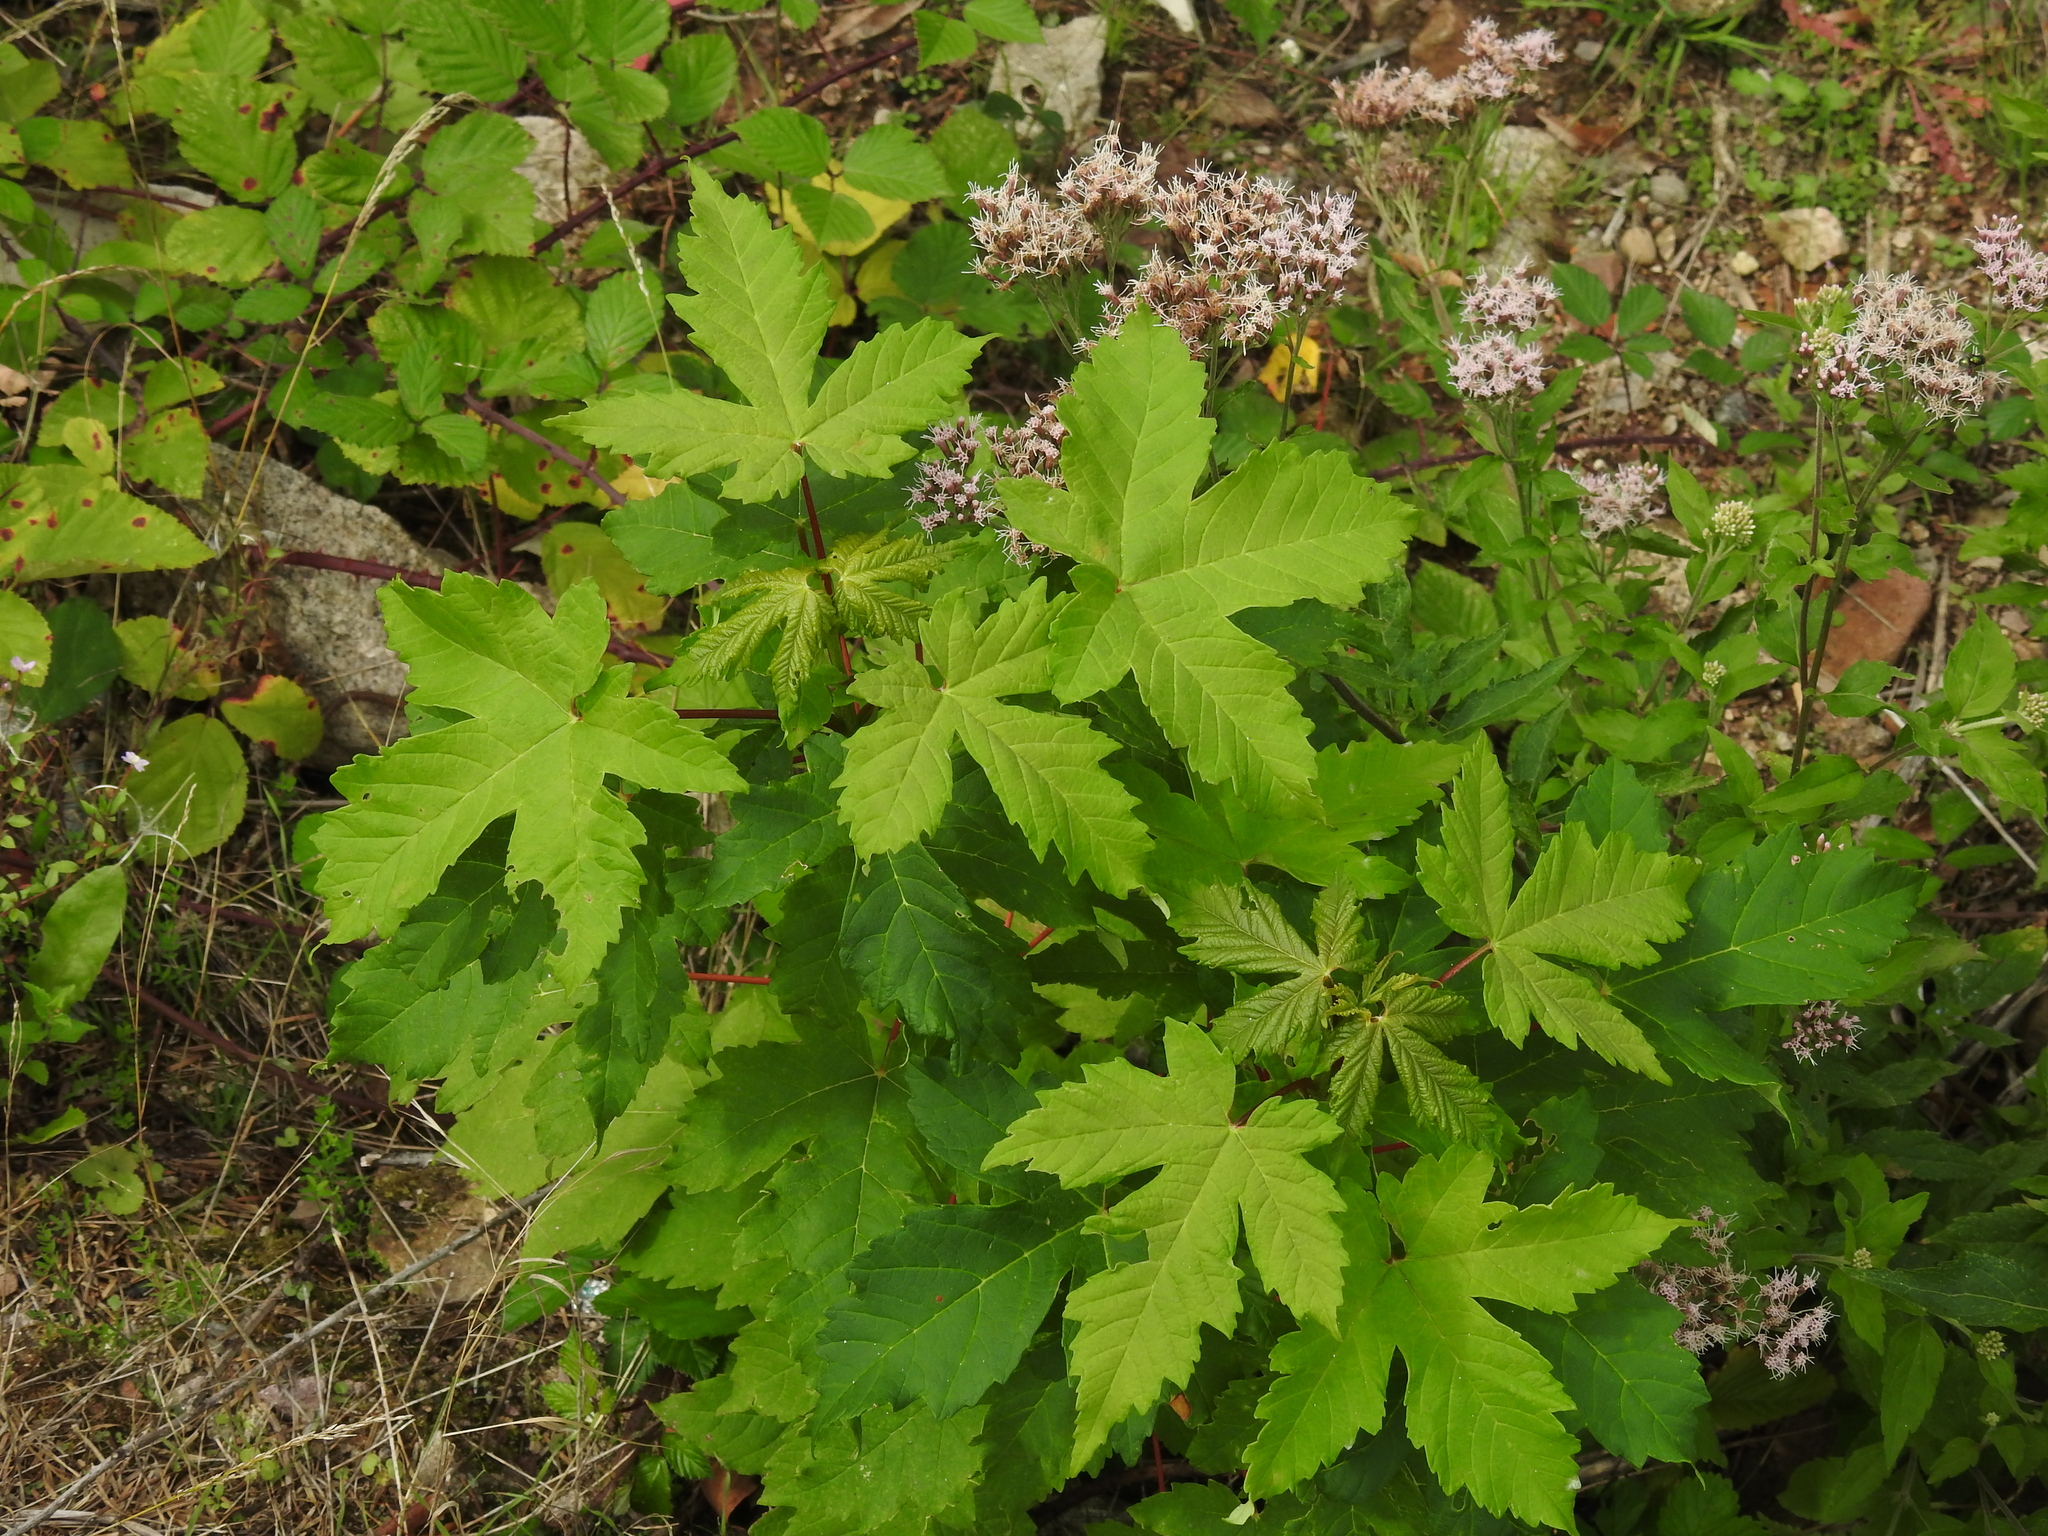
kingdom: Plantae
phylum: Tracheophyta
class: Magnoliopsida
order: Sapindales
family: Sapindaceae
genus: Acer
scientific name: Acer pseudoplatanus
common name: Sycamore
